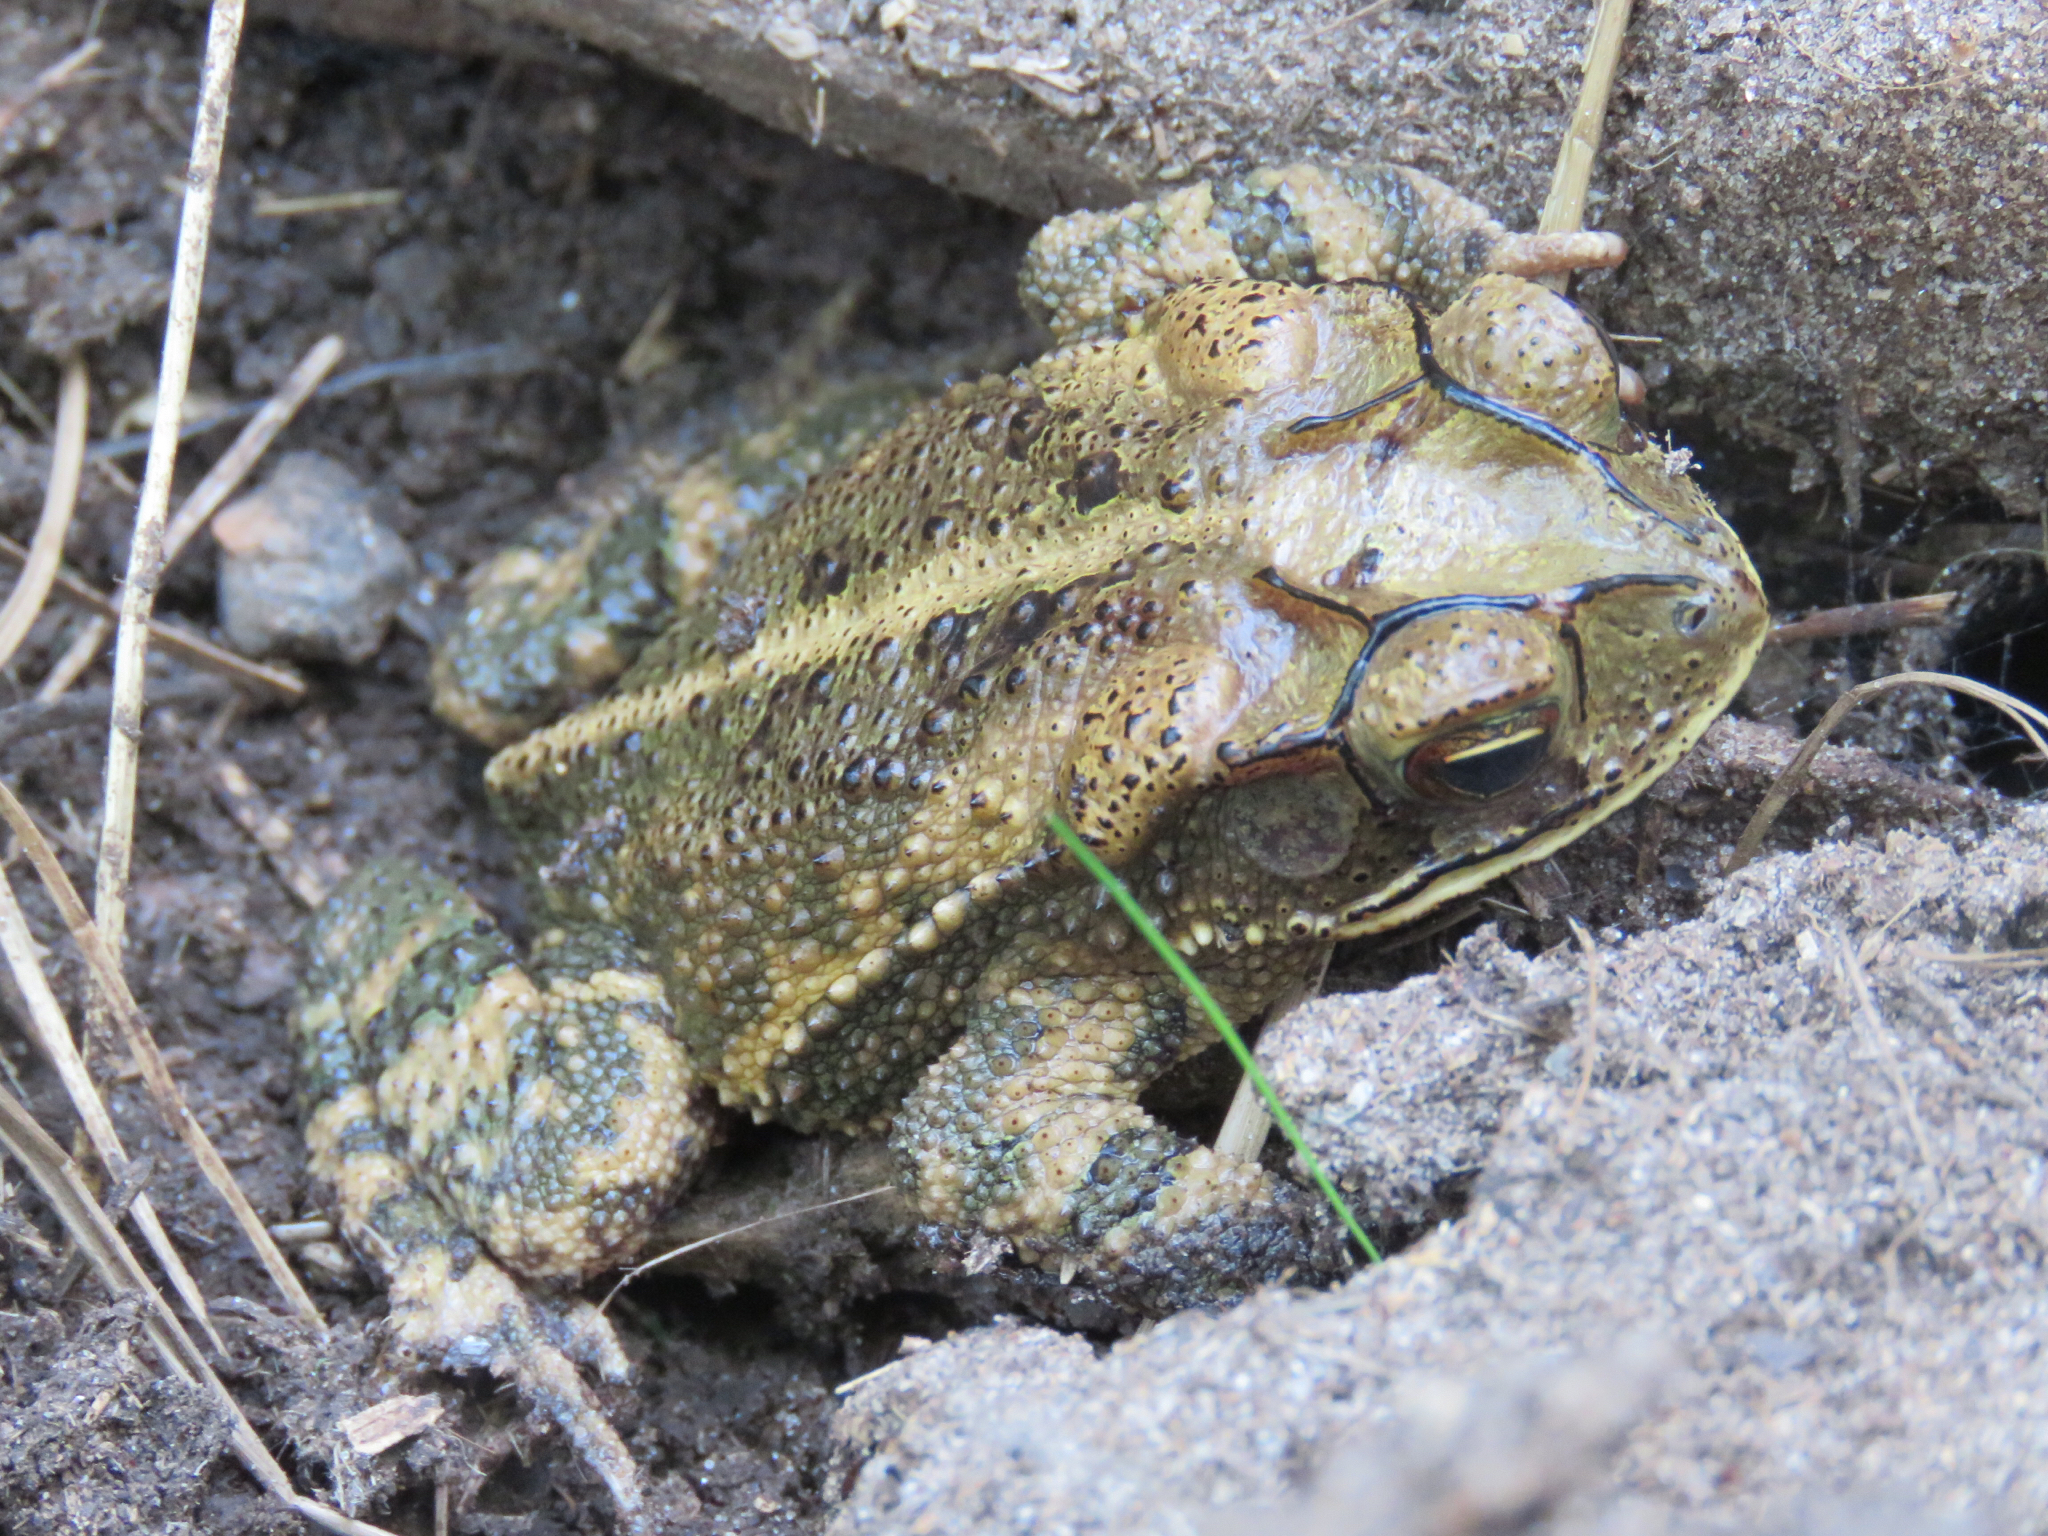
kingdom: Animalia
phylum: Chordata
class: Amphibia
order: Anura
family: Bufonidae
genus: Incilius
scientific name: Incilius nebulifer
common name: Gulf coast toad
